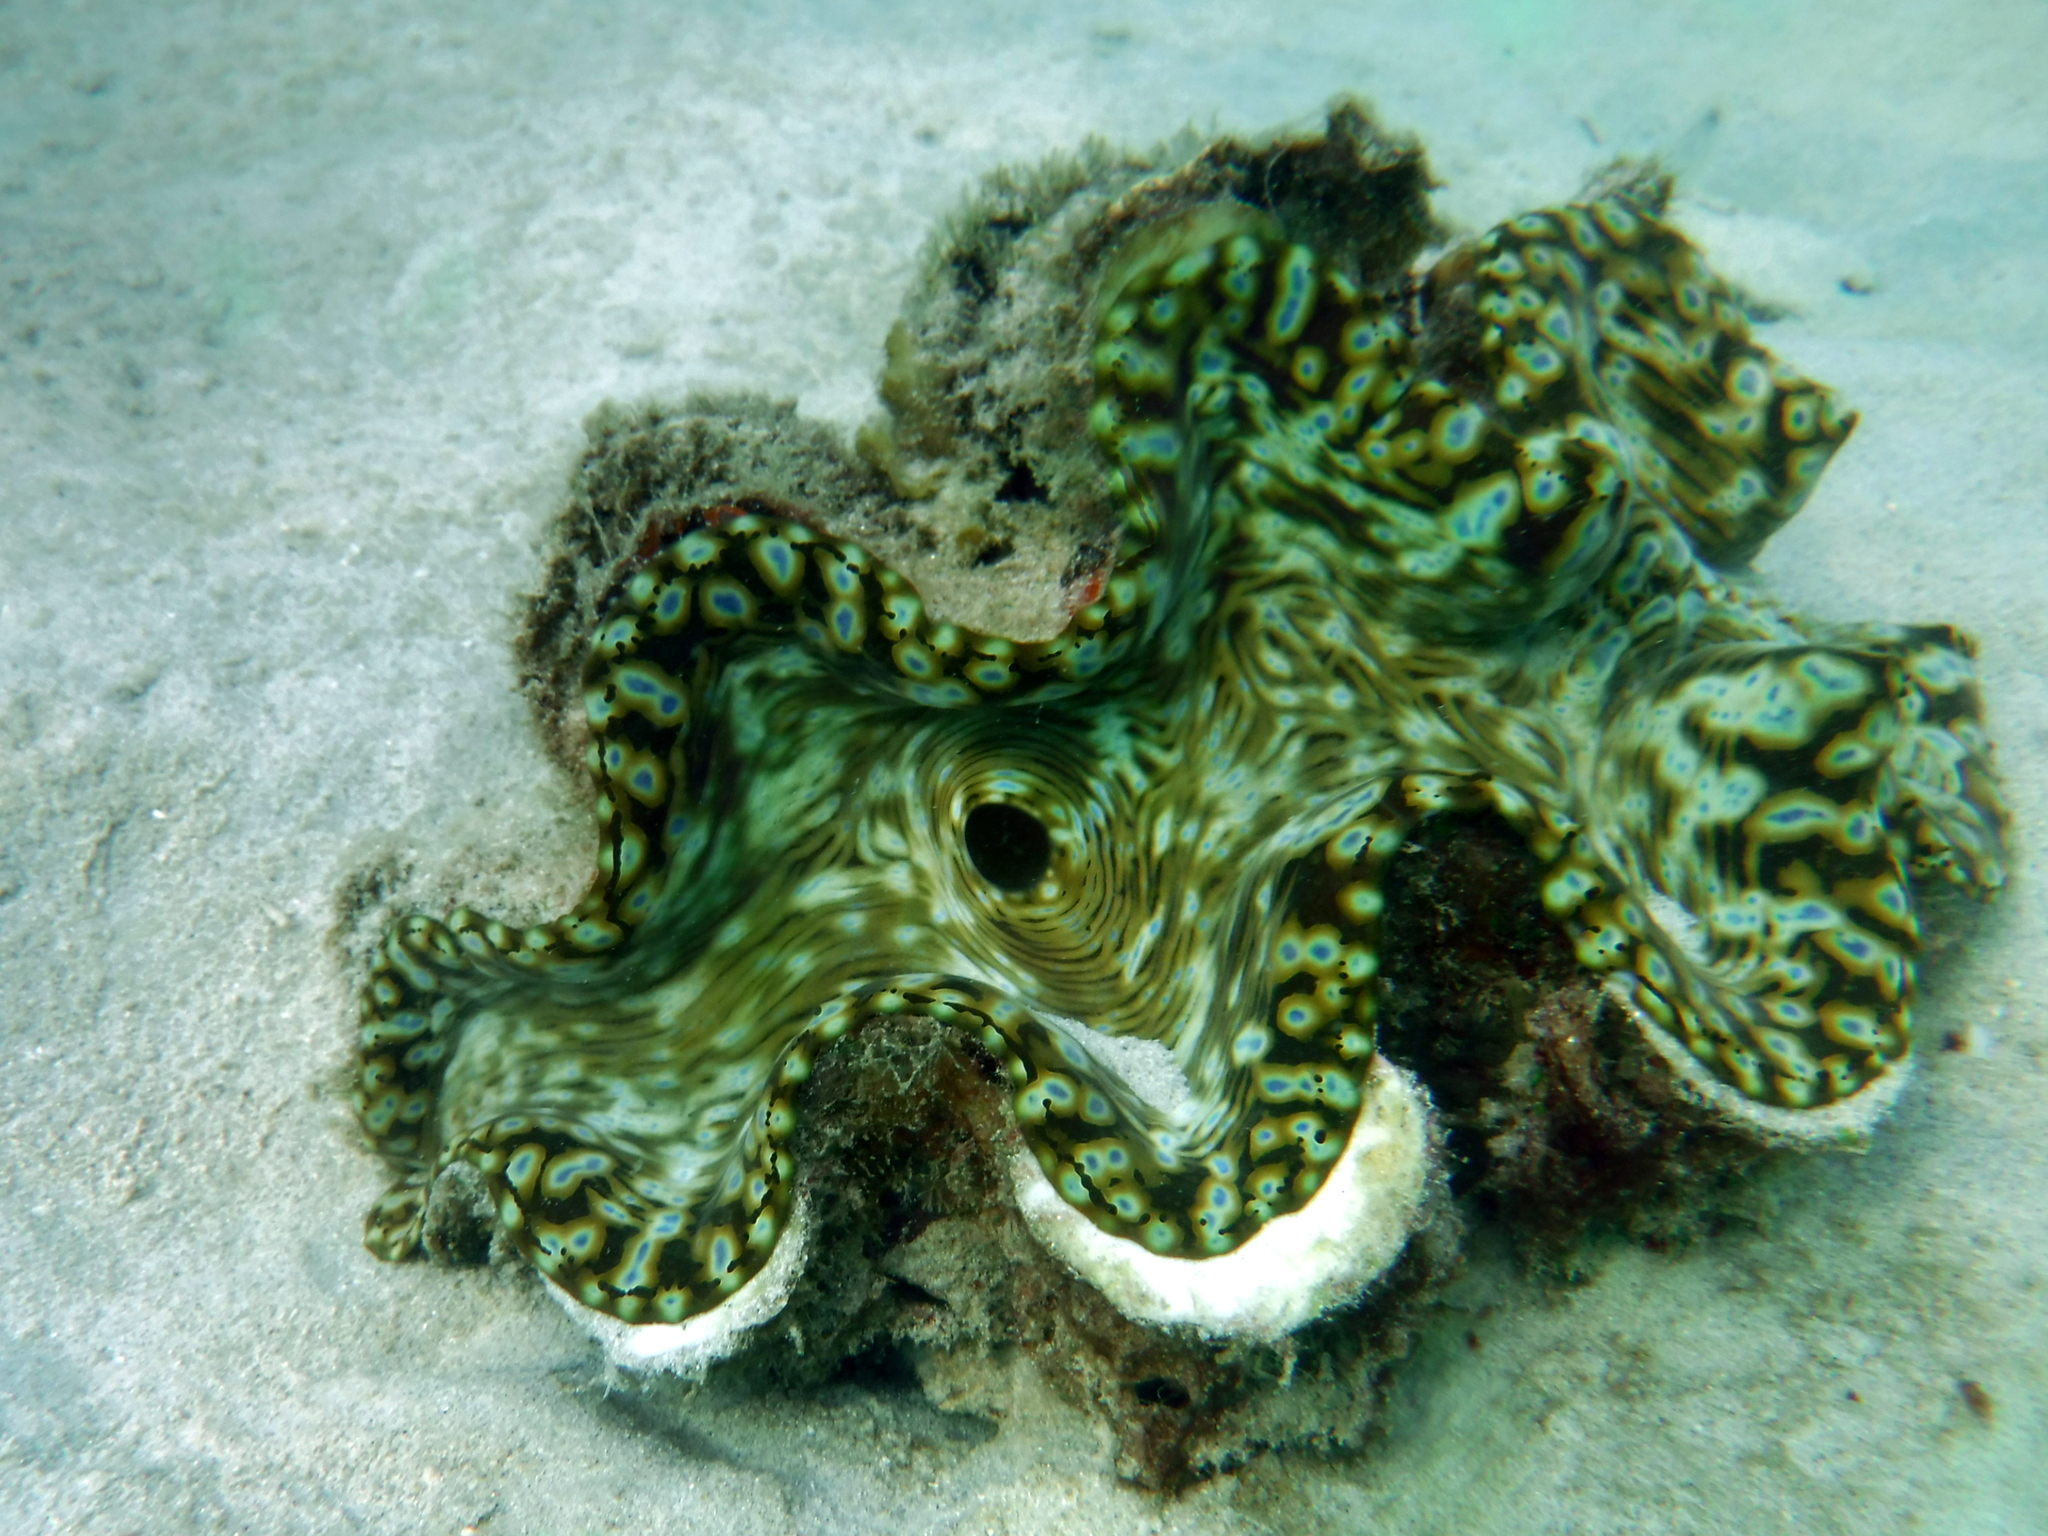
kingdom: Animalia
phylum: Mollusca
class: Bivalvia
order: Cardiida
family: Cardiidae
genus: Tridacna
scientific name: Tridacna squamosa
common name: Fluted clam
